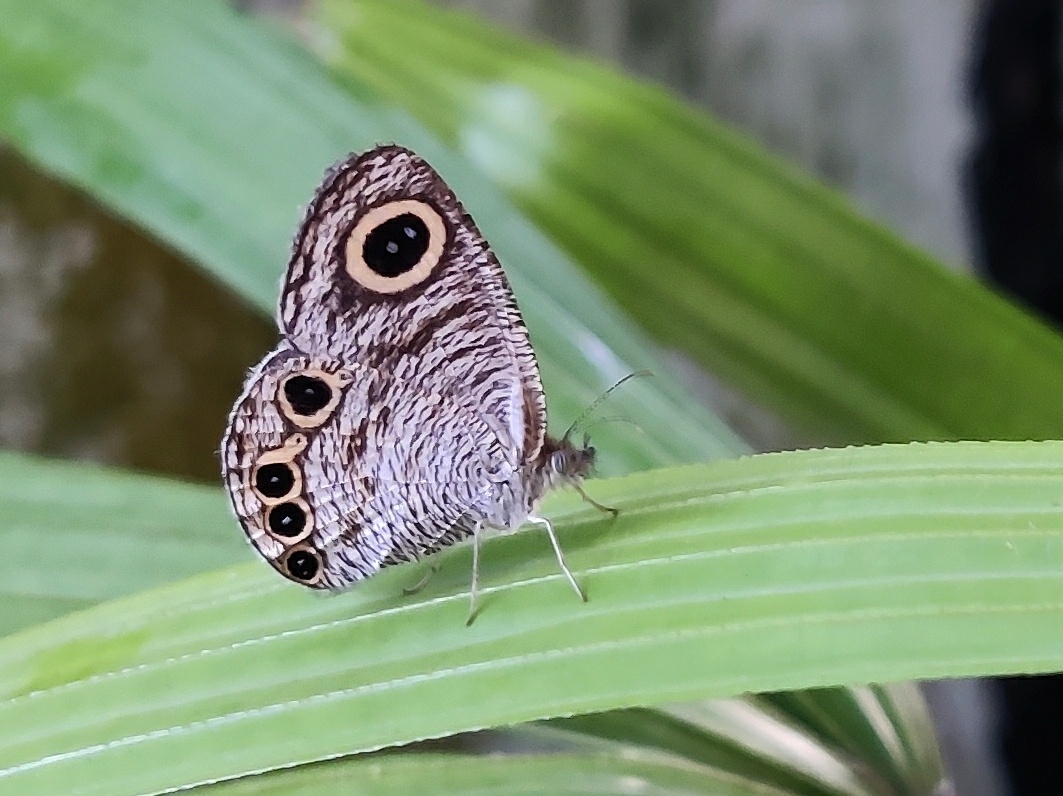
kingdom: Animalia
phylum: Arthropoda
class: Insecta
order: Lepidoptera
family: Nymphalidae
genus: Ypthima
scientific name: Ypthima huebneri
